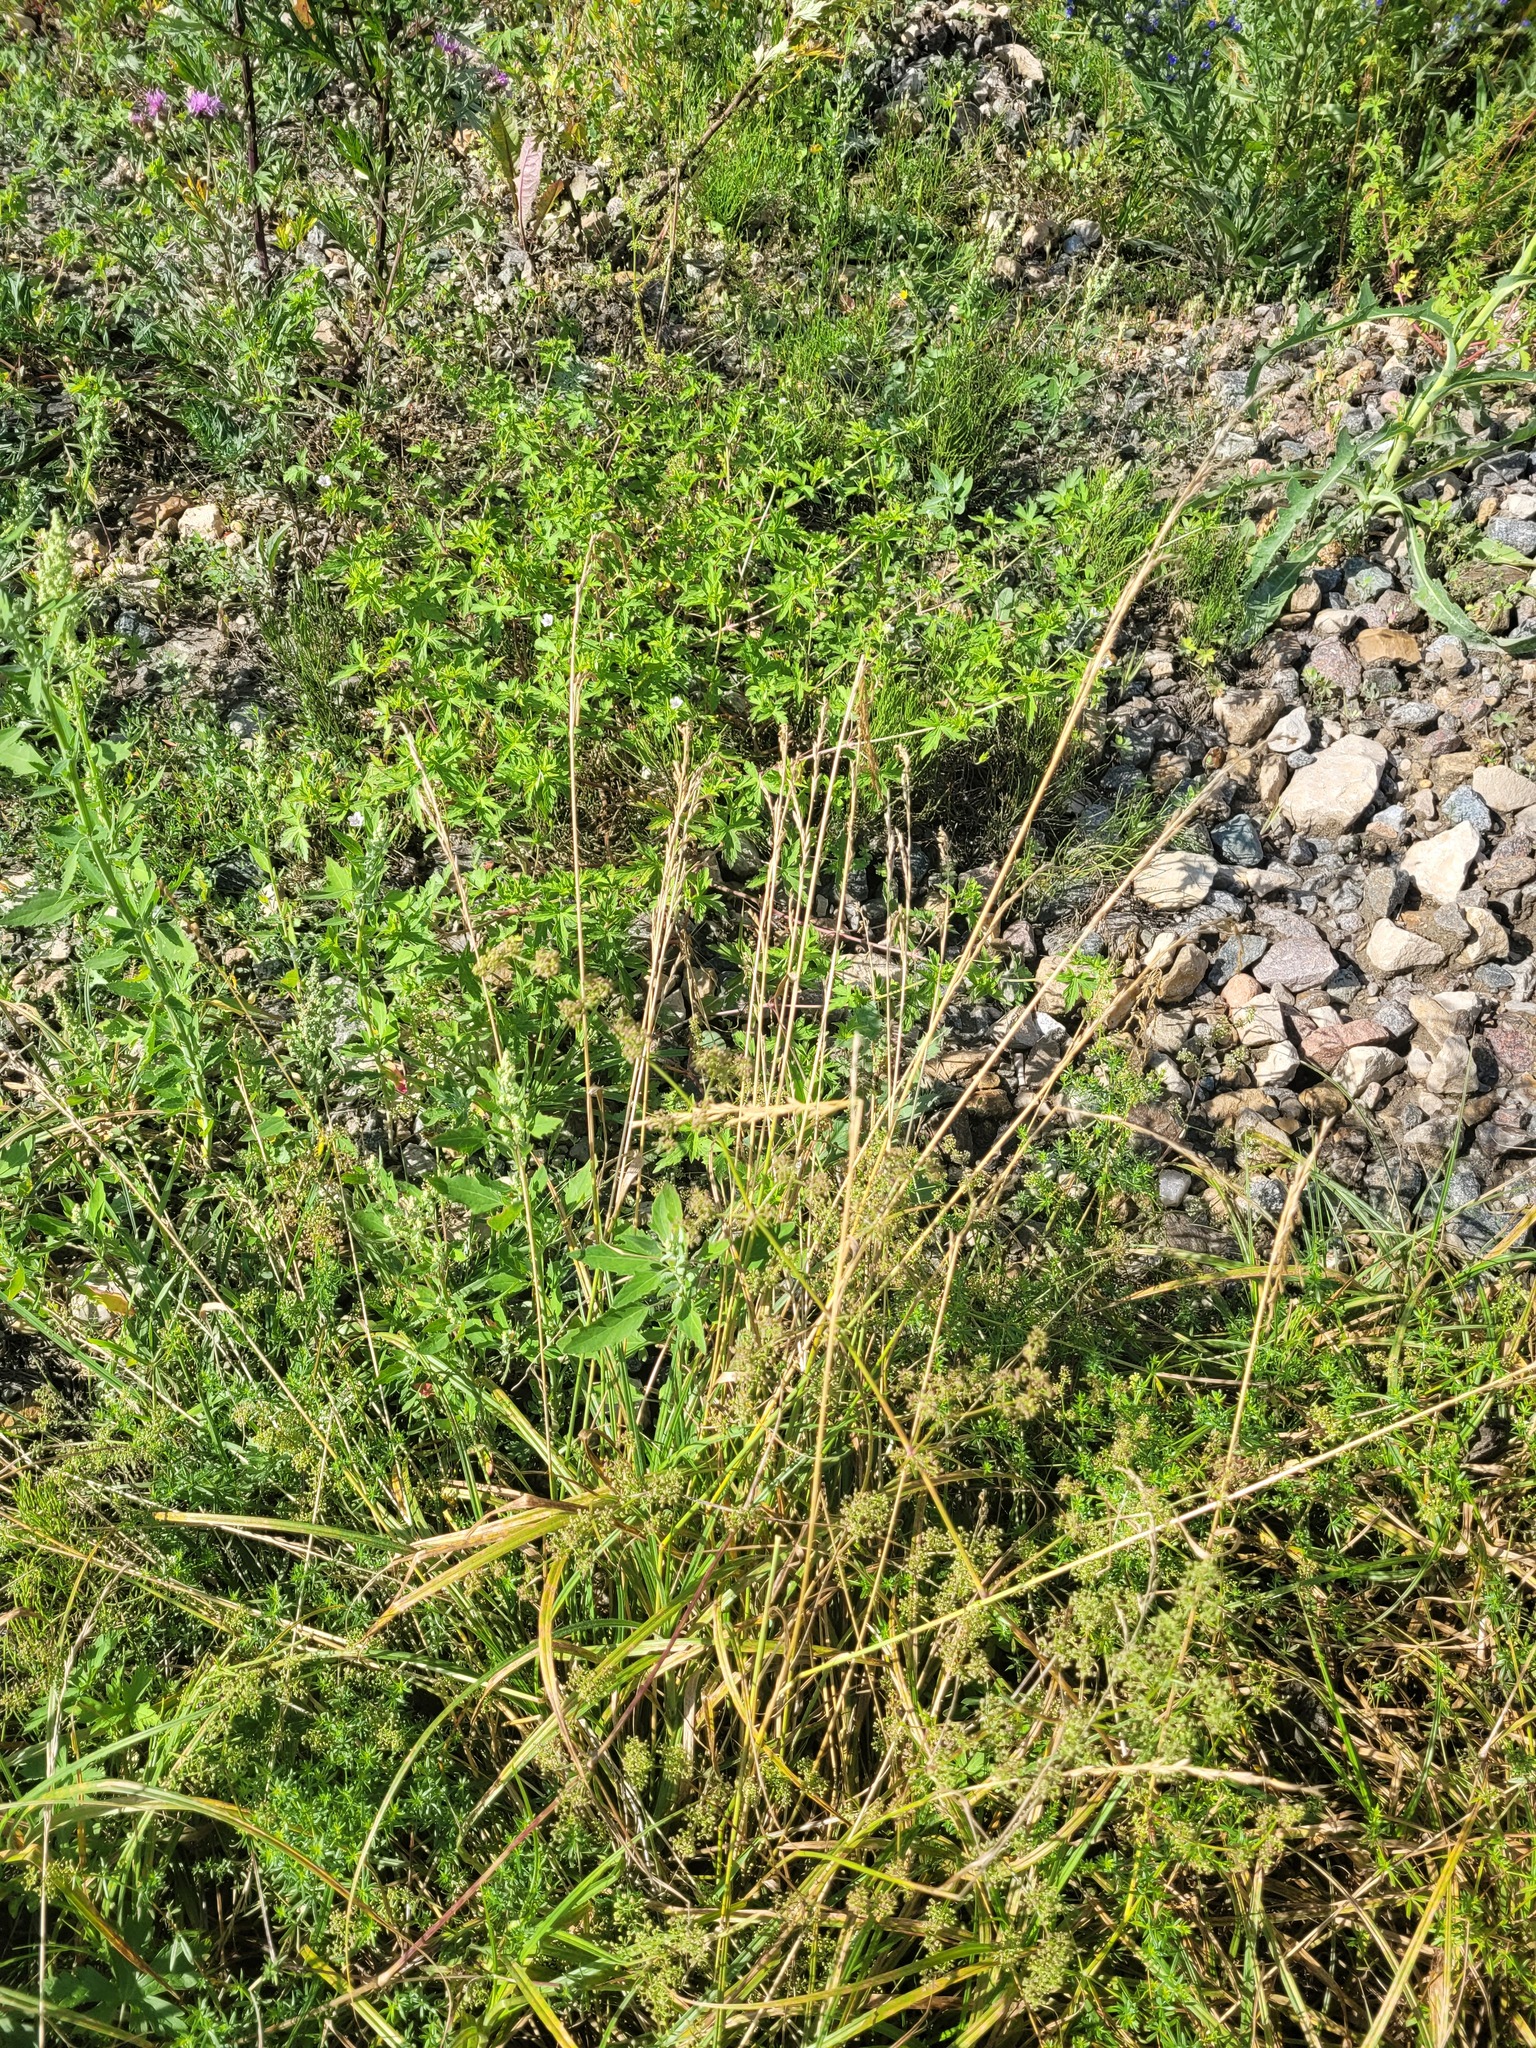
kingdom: Plantae
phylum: Tracheophyta
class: Liliopsida
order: Poales
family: Poaceae
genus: Lolium
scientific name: Lolium pratense
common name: Dover grass
